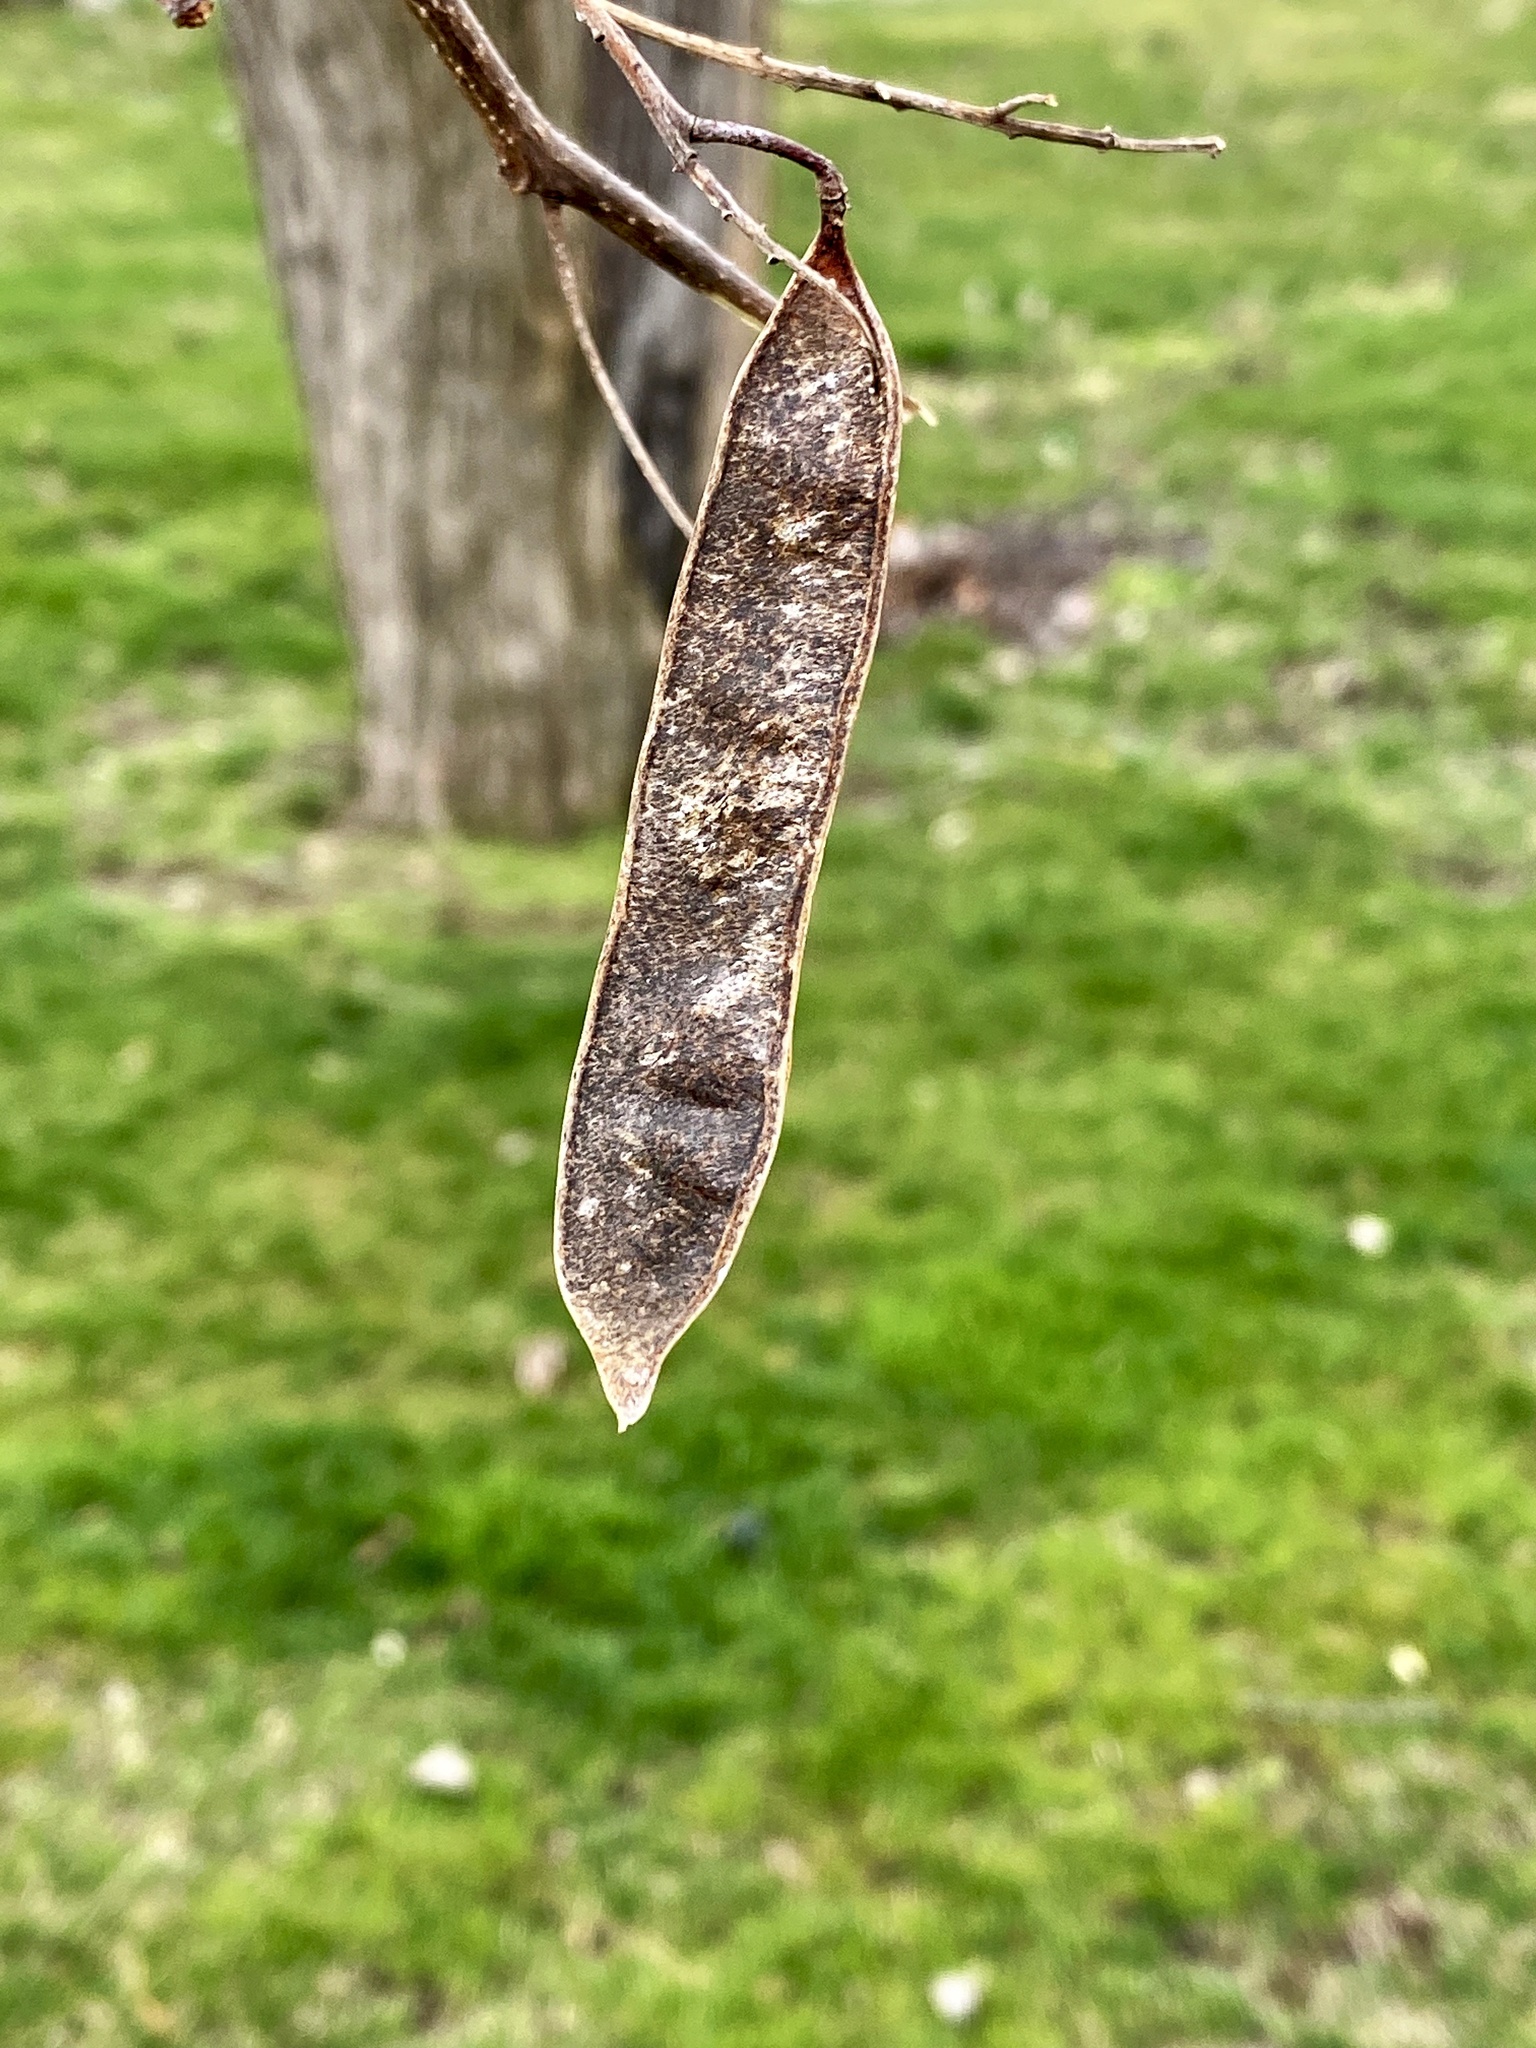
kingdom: Plantae
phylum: Tracheophyta
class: Magnoliopsida
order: Fabales
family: Fabaceae
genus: Robinia
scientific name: Robinia pseudoacacia
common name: Black locust
